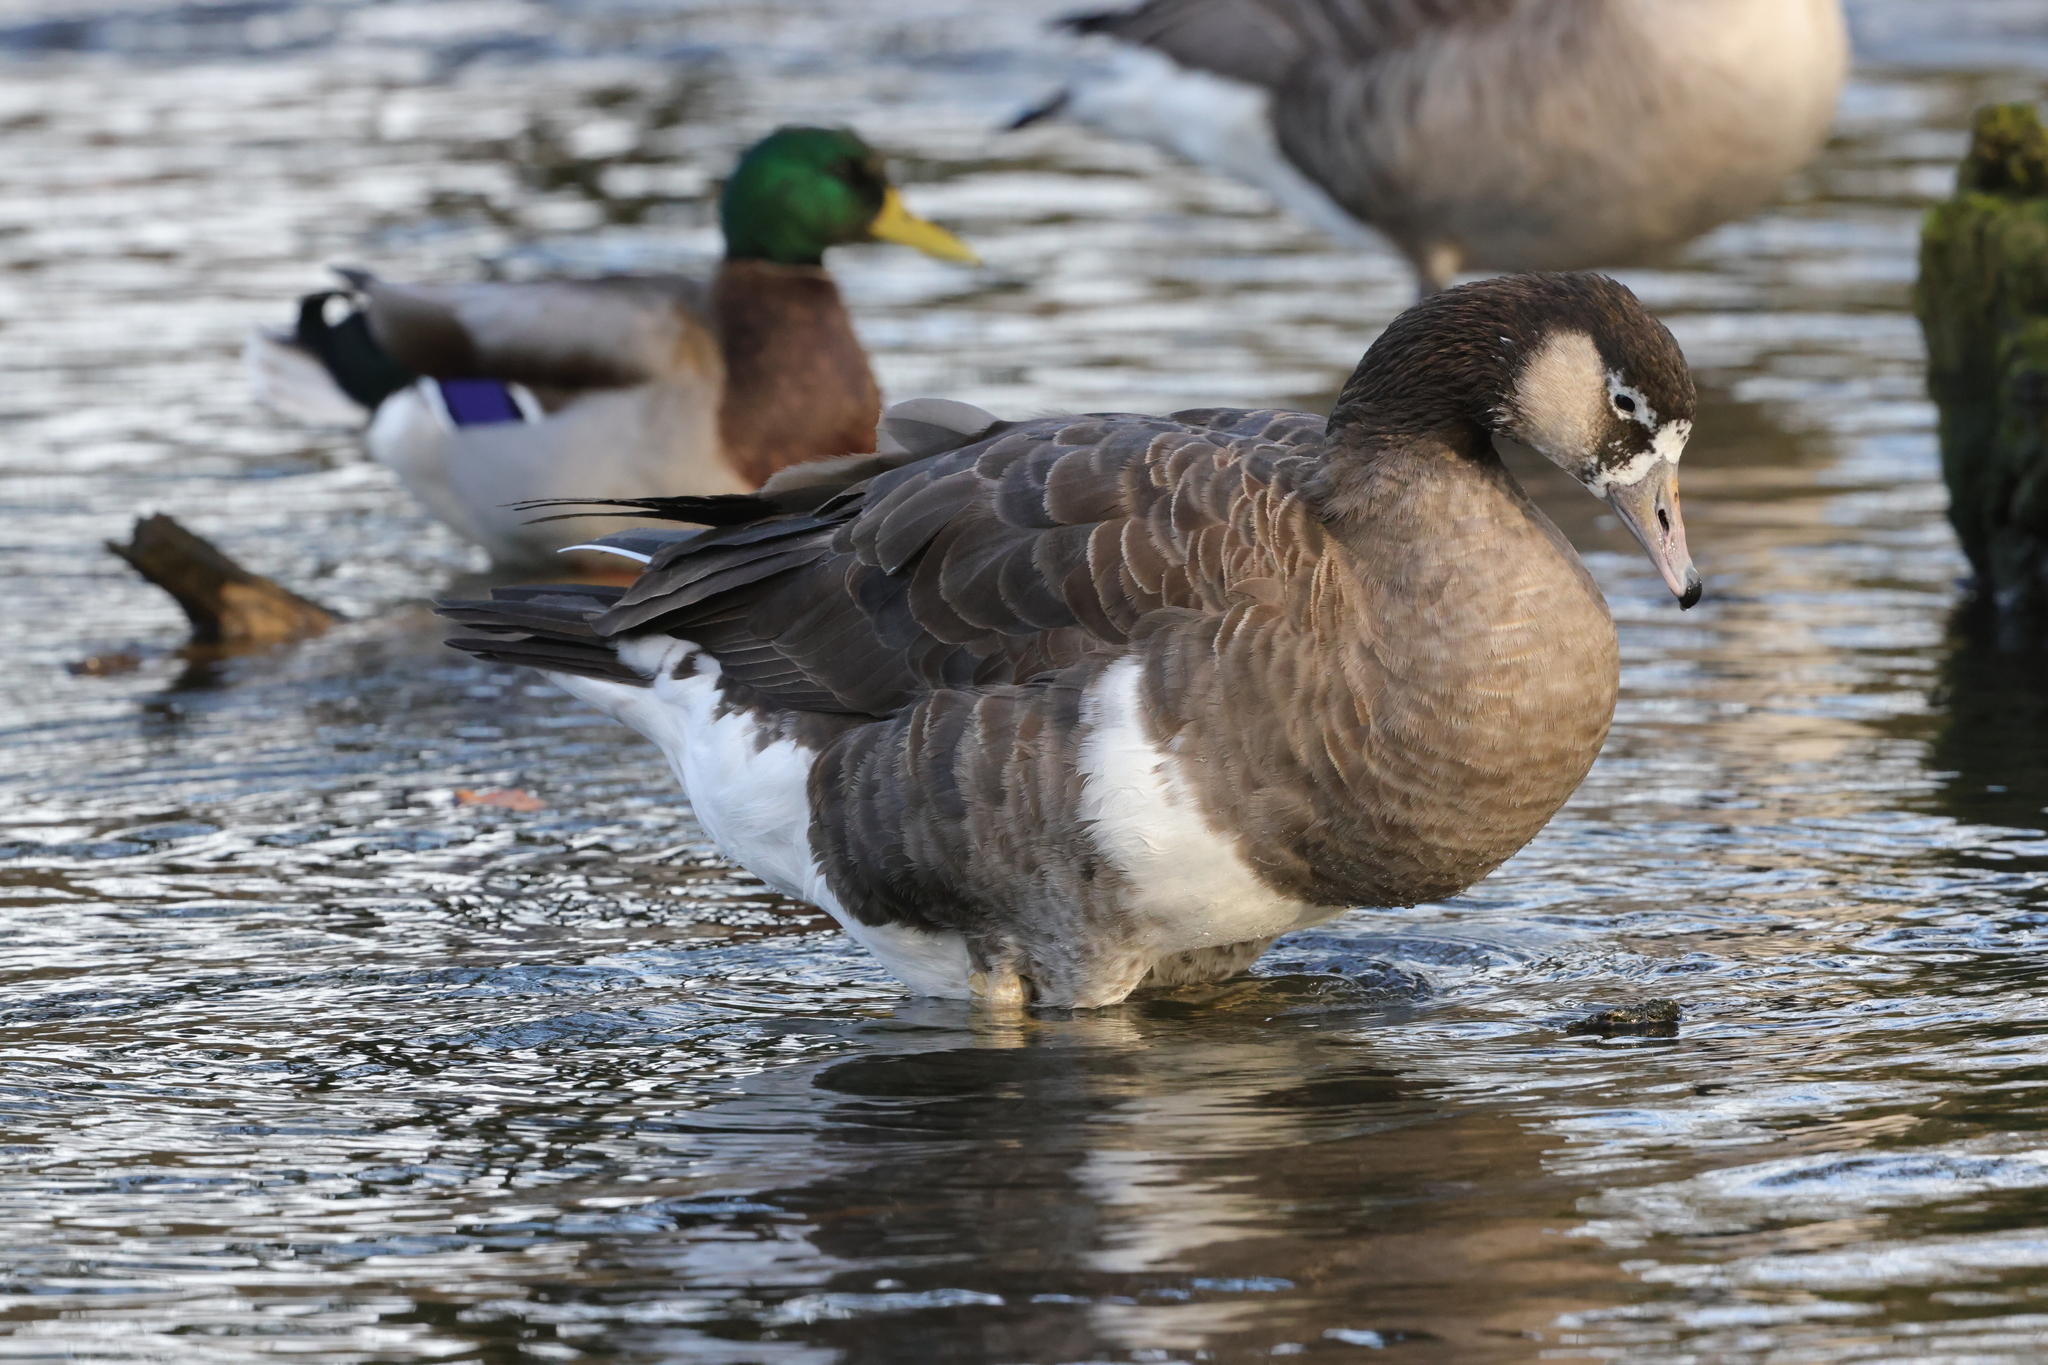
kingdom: Animalia
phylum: Chordata
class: Aves
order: Anseriformes
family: Anatidae
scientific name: Anatidae
